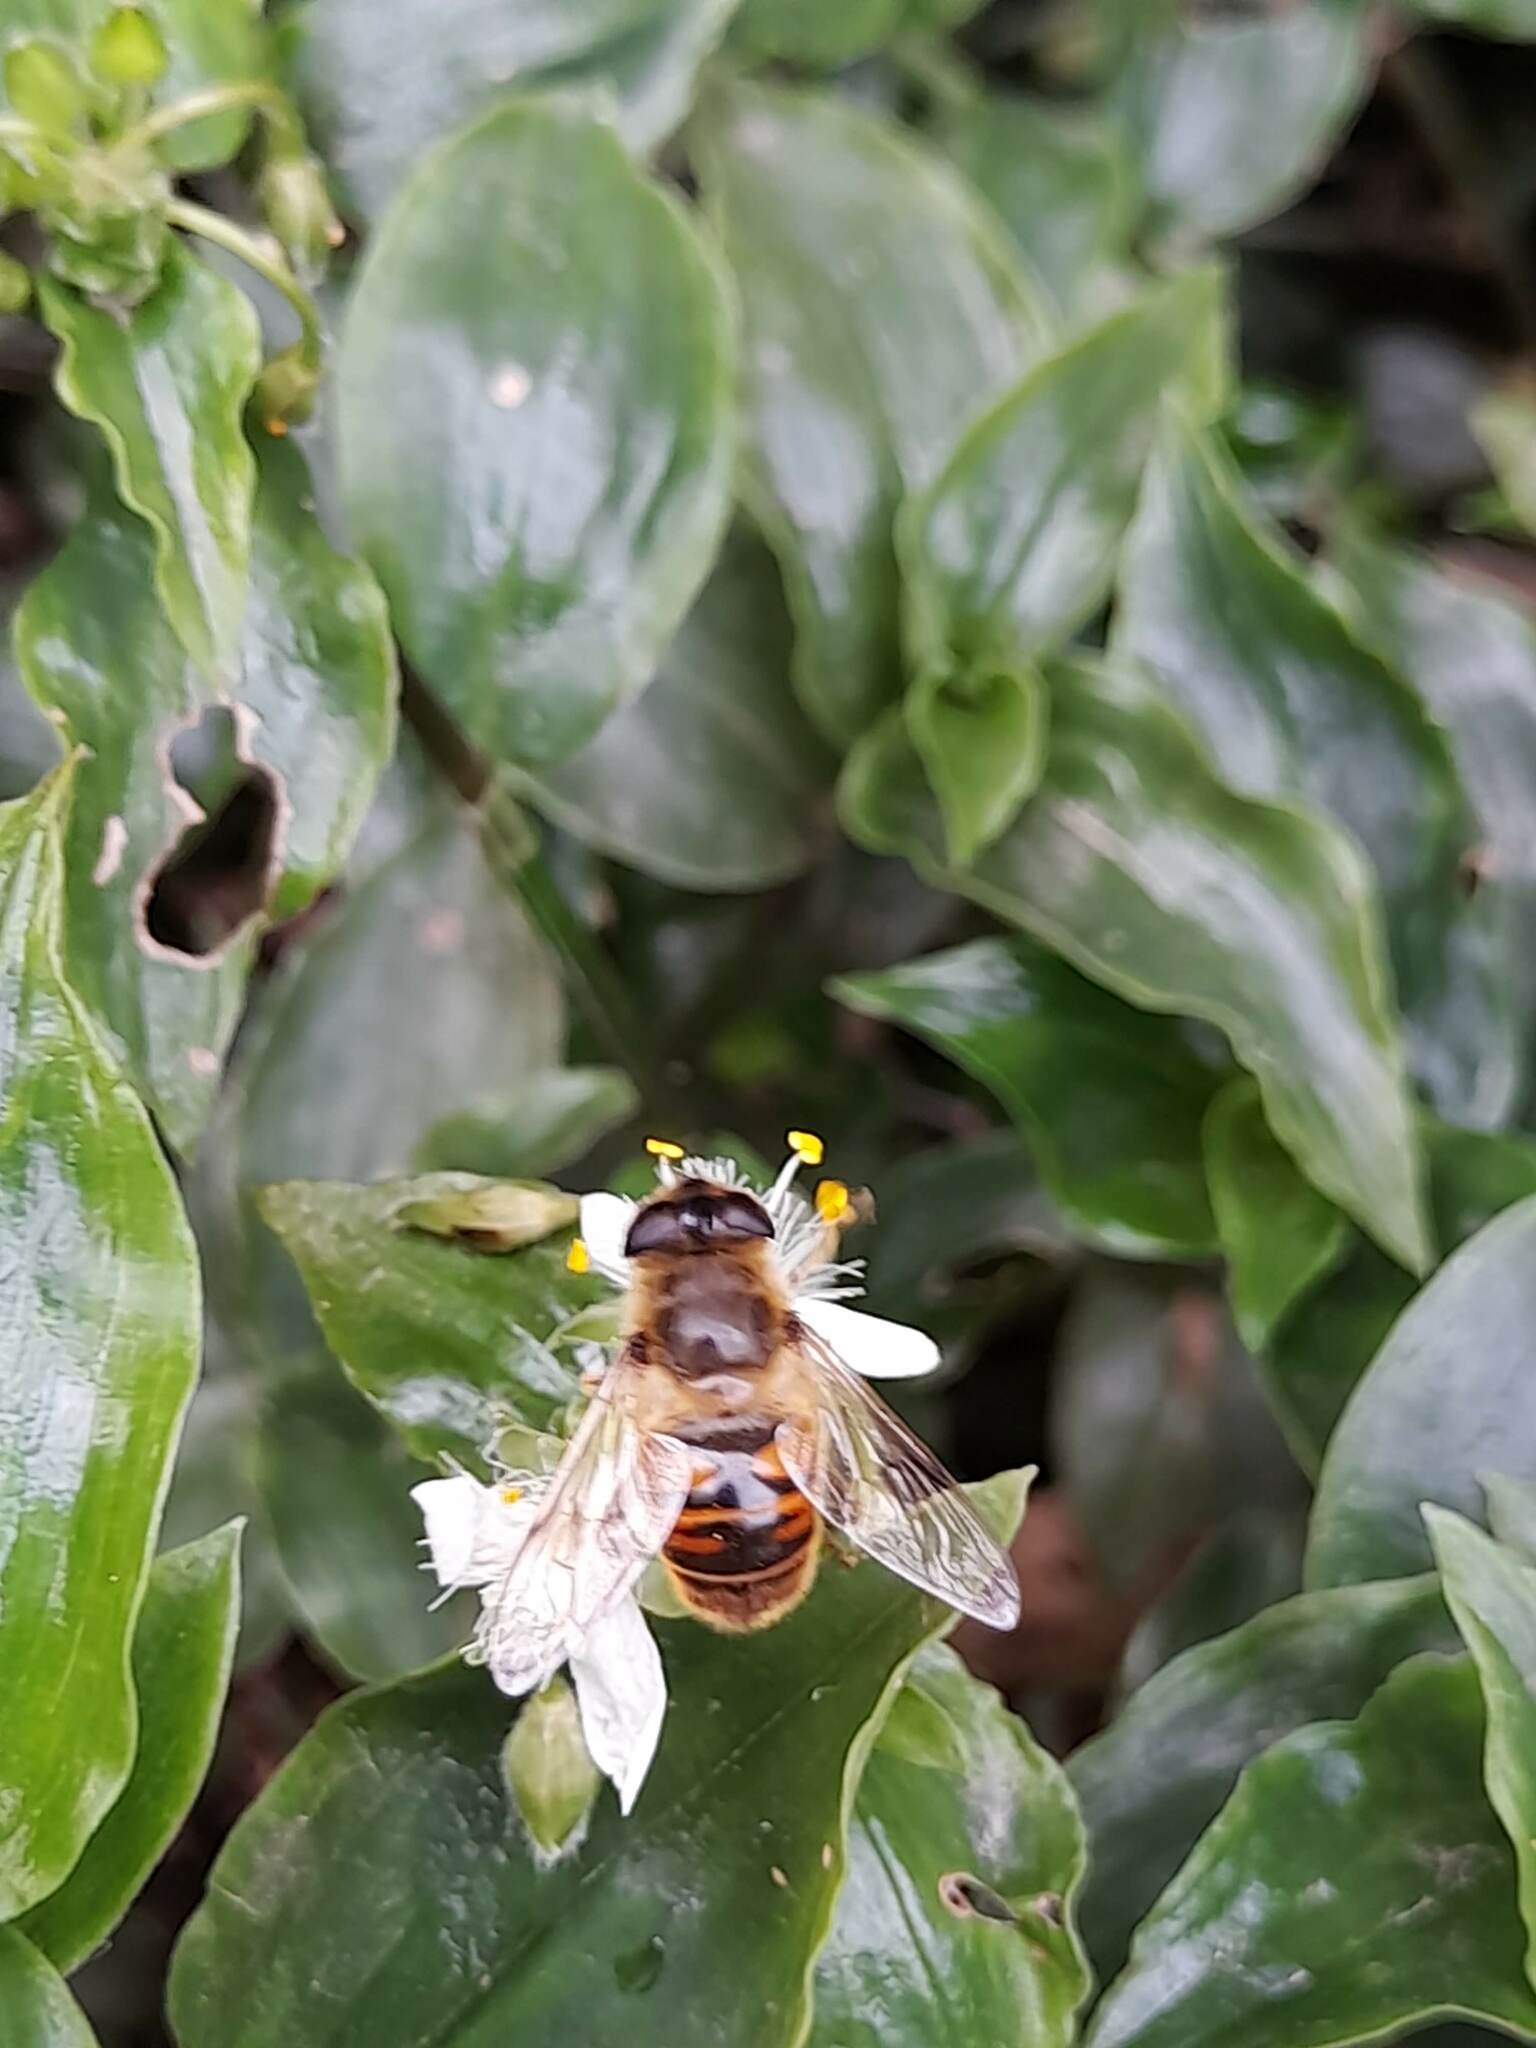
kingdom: Animalia
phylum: Arthropoda
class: Insecta
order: Diptera
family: Syrphidae
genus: Eristalis
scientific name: Eristalis tenax
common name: Drone fly
